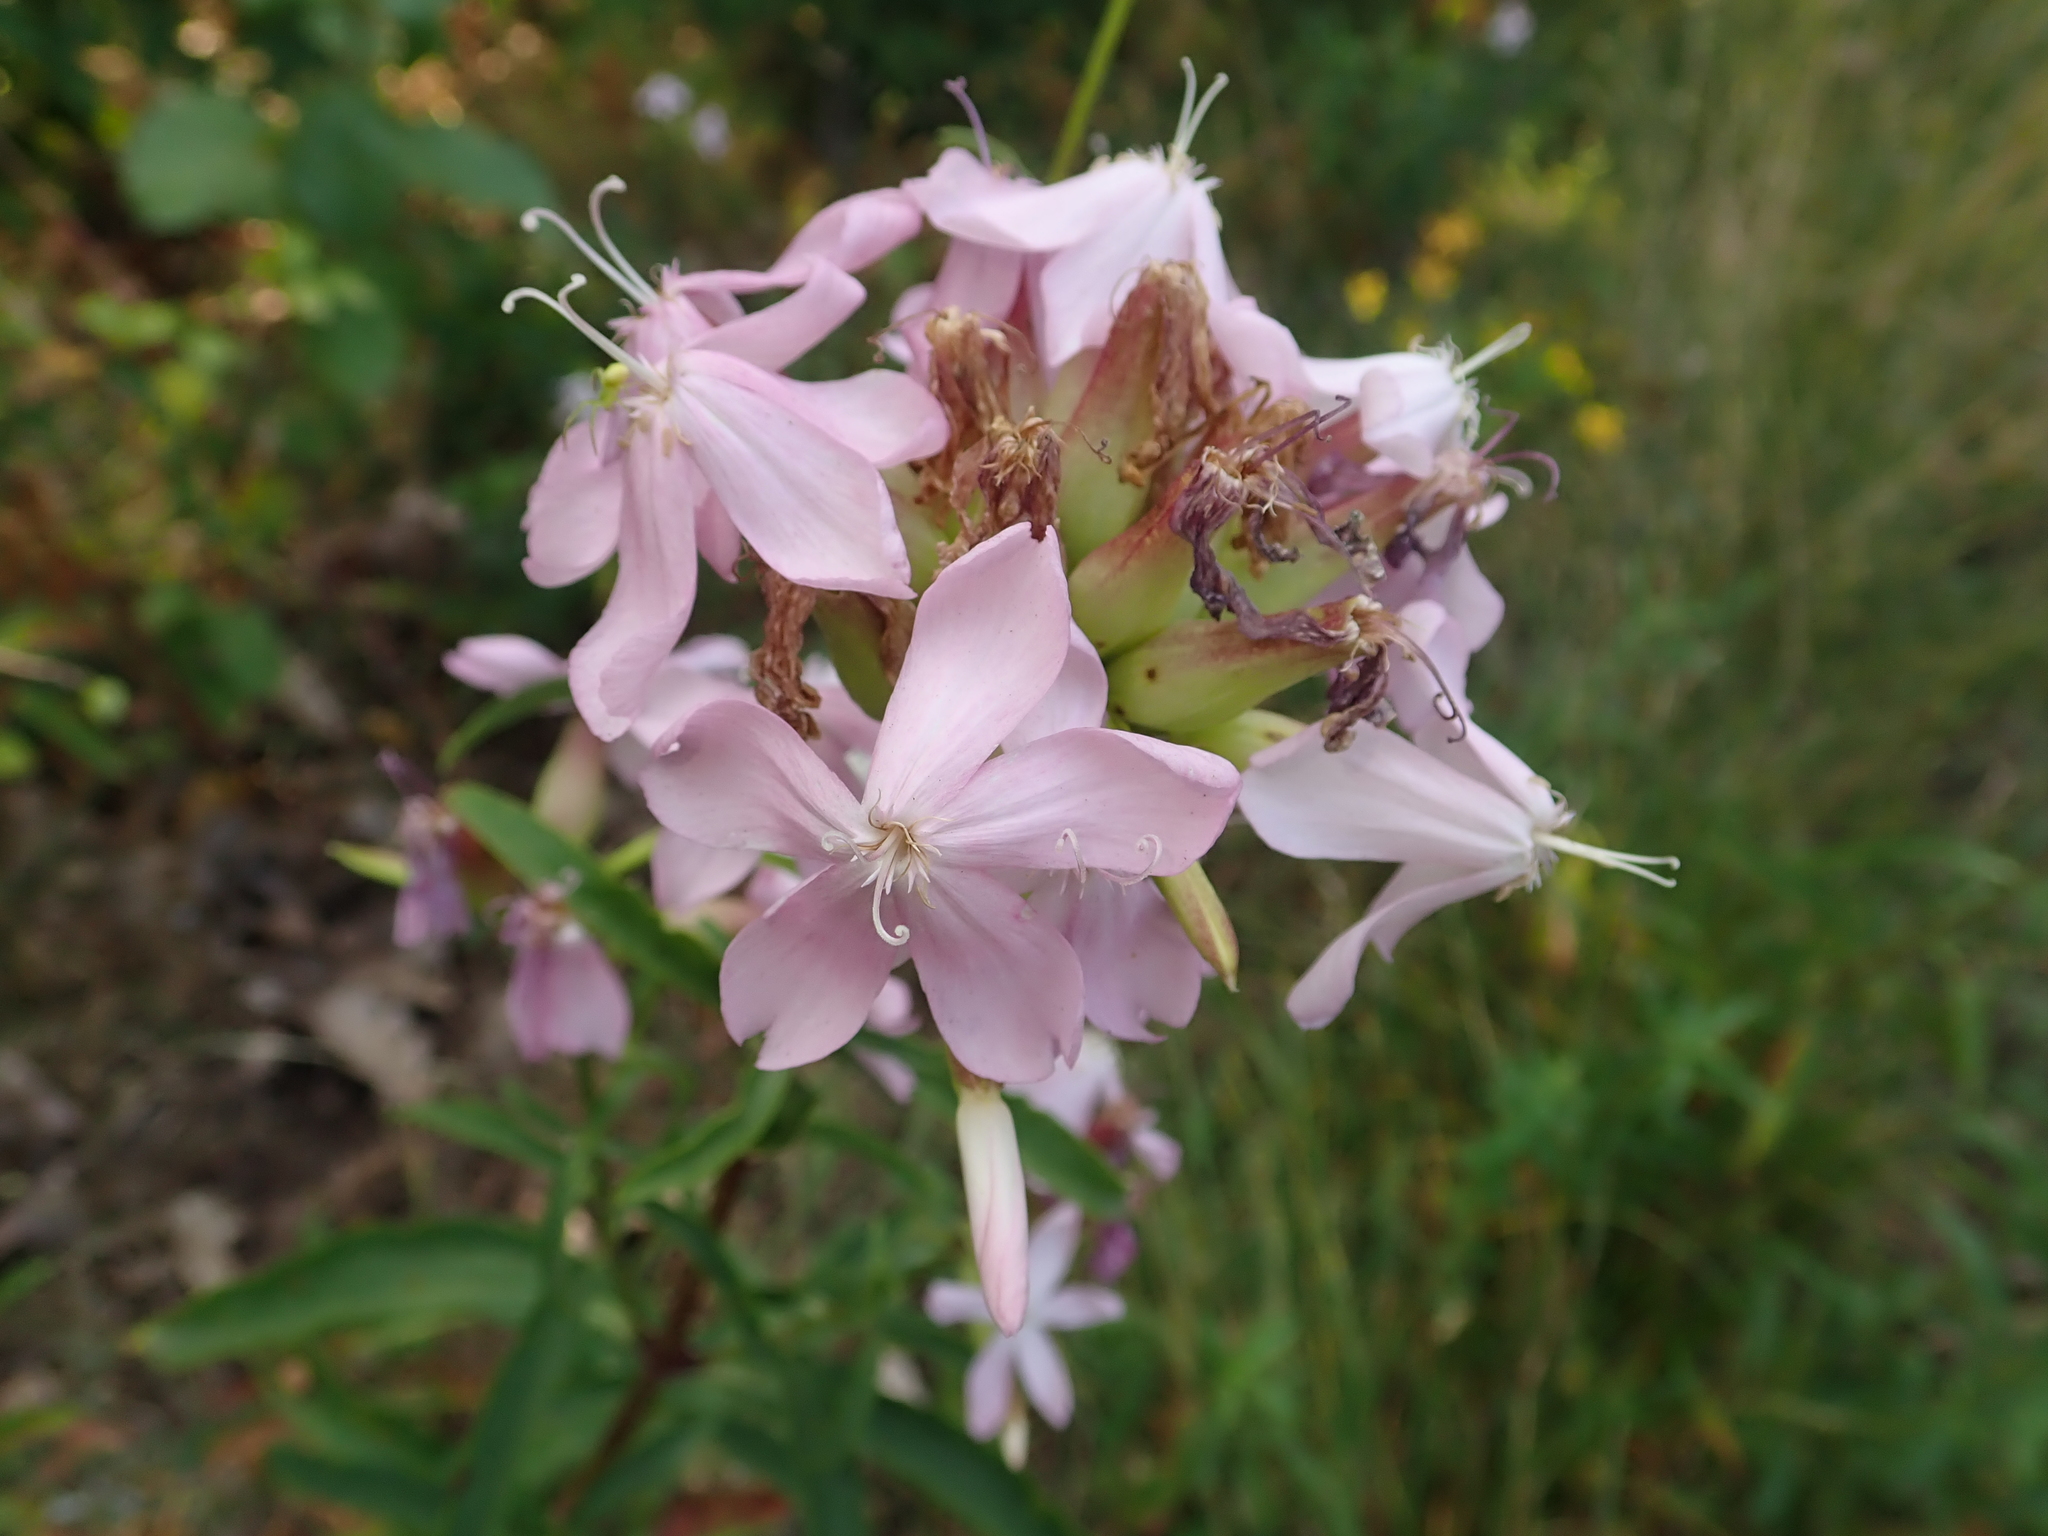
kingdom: Plantae
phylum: Tracheophyta
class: Magnoliopsida
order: Caryophyllales
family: Caryophyllaceae
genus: Saponaria
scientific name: Saponaria officinalis
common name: Soapwort
